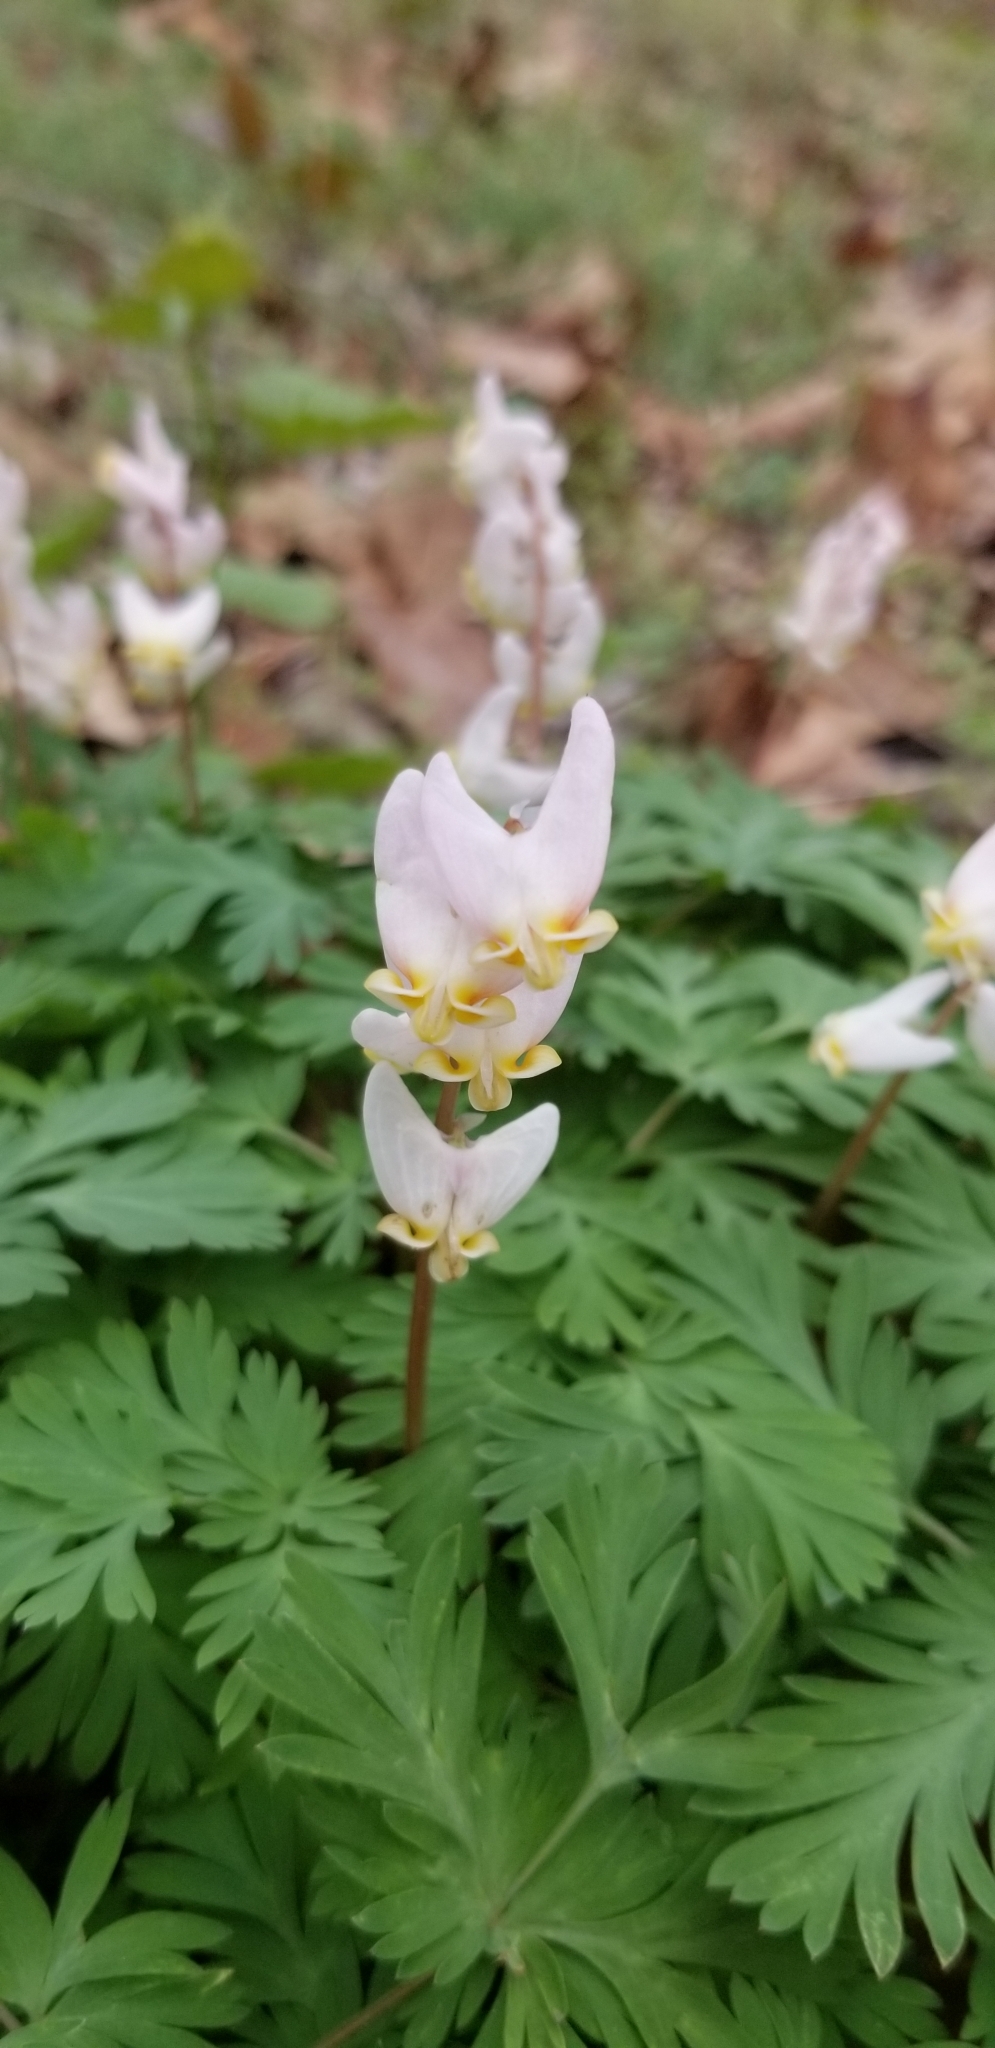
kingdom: Plantae
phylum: Tracheophyta
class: Magnoliopsida
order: Ranunculales
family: Papaveraceae
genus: Dicentra
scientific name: Dicentra cucullaria
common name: Dutchman's breeches
